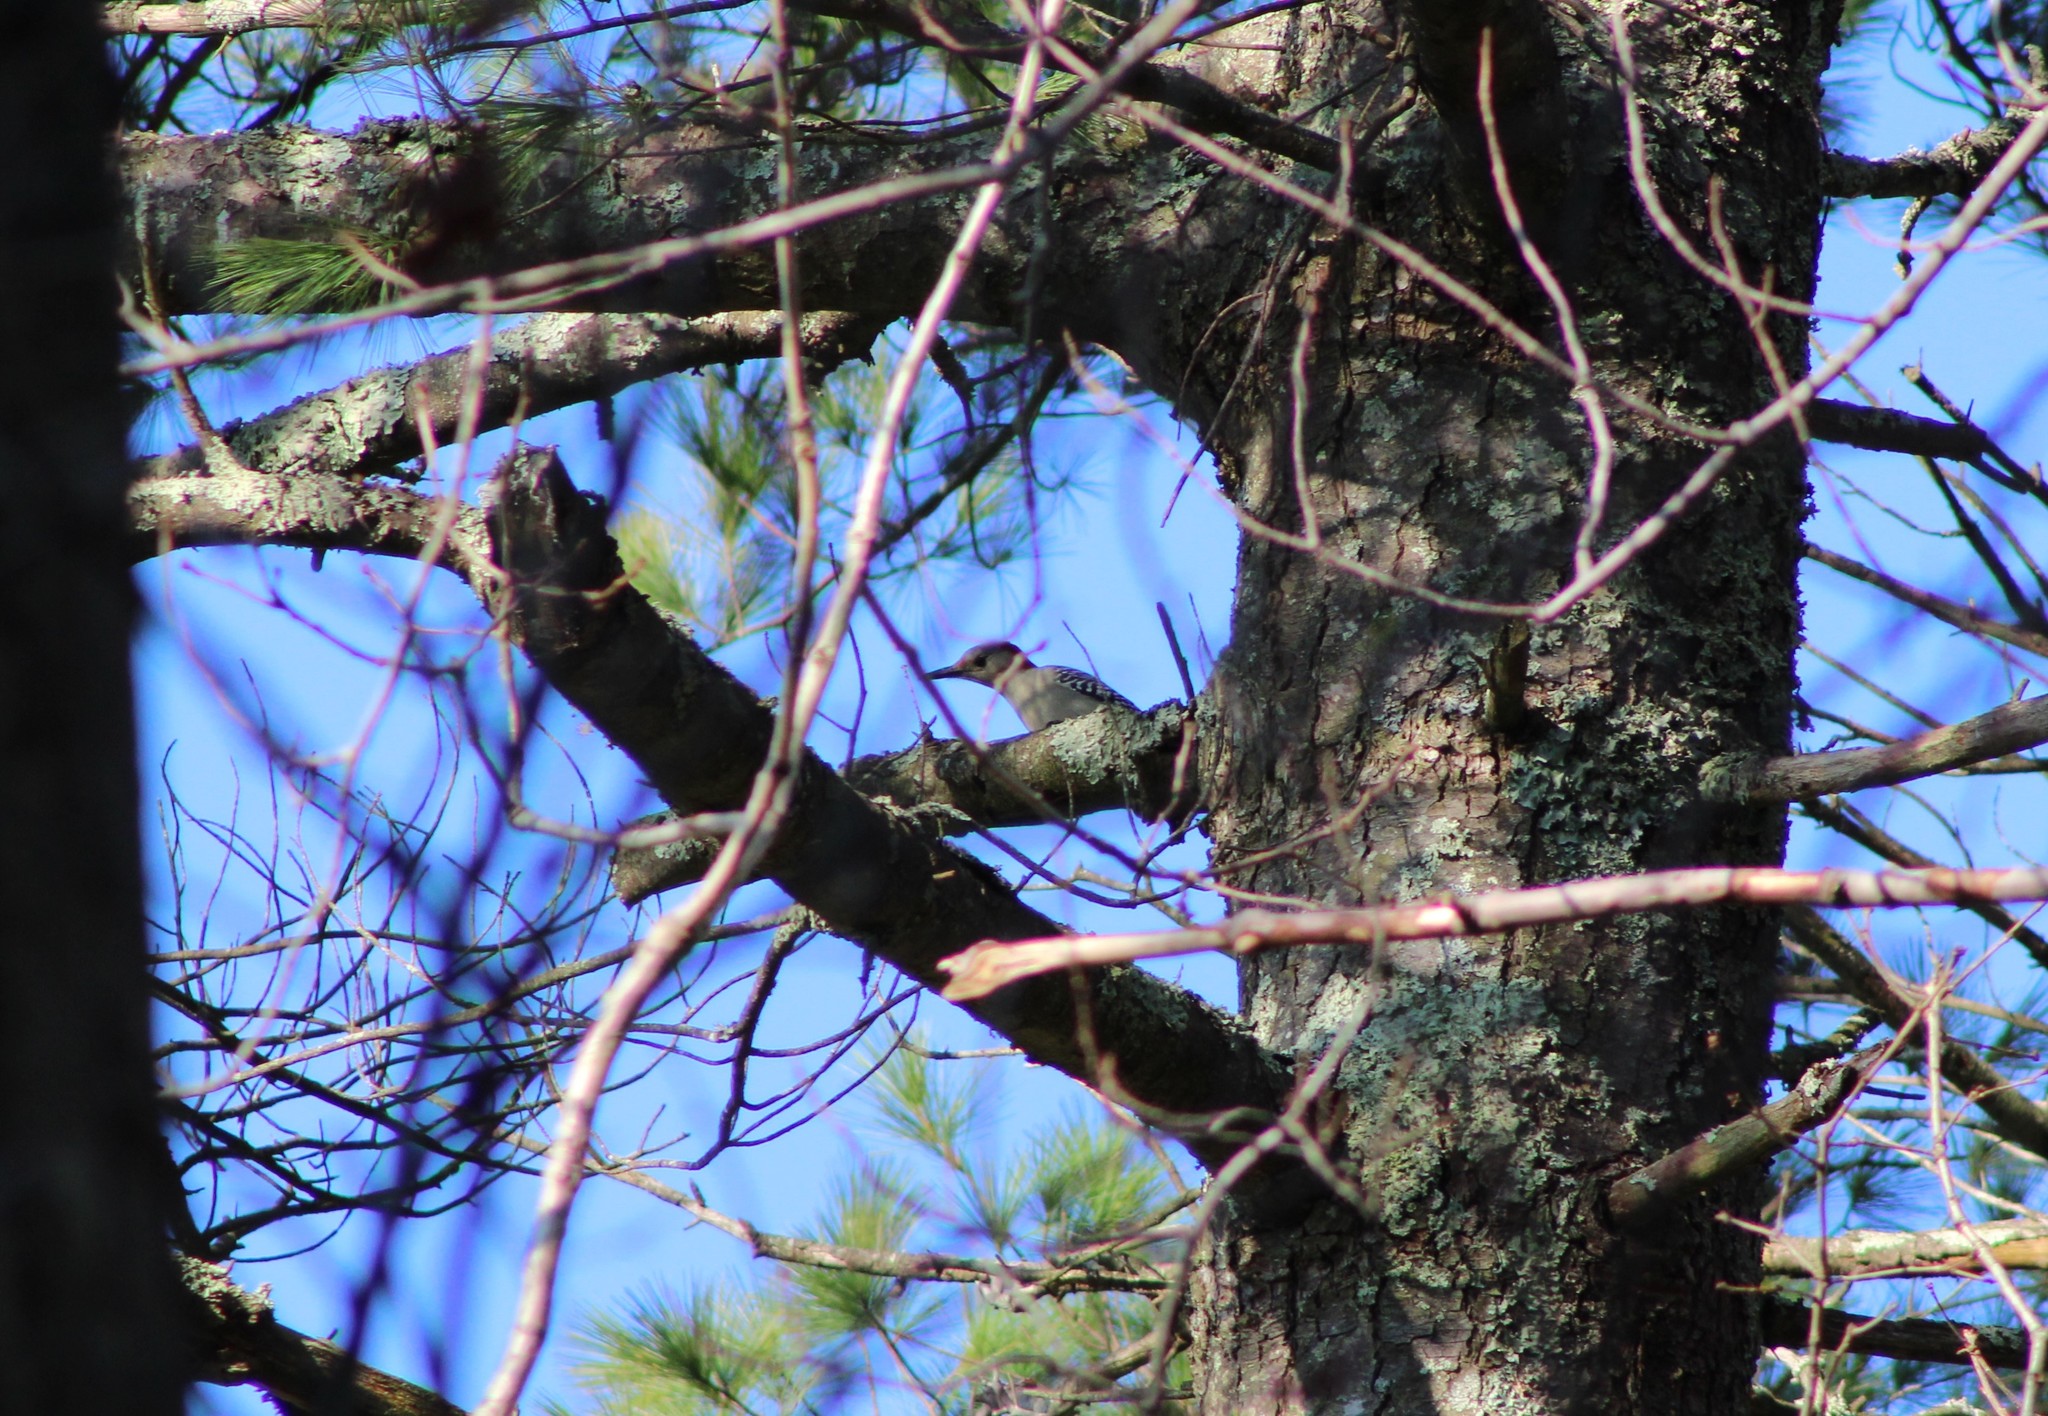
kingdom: Animalia
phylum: Chordata
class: Aves
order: Piciformes
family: Picidae
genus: Melanerpes
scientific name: Melanerpes carolinus
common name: Red-bellied woodpecker
